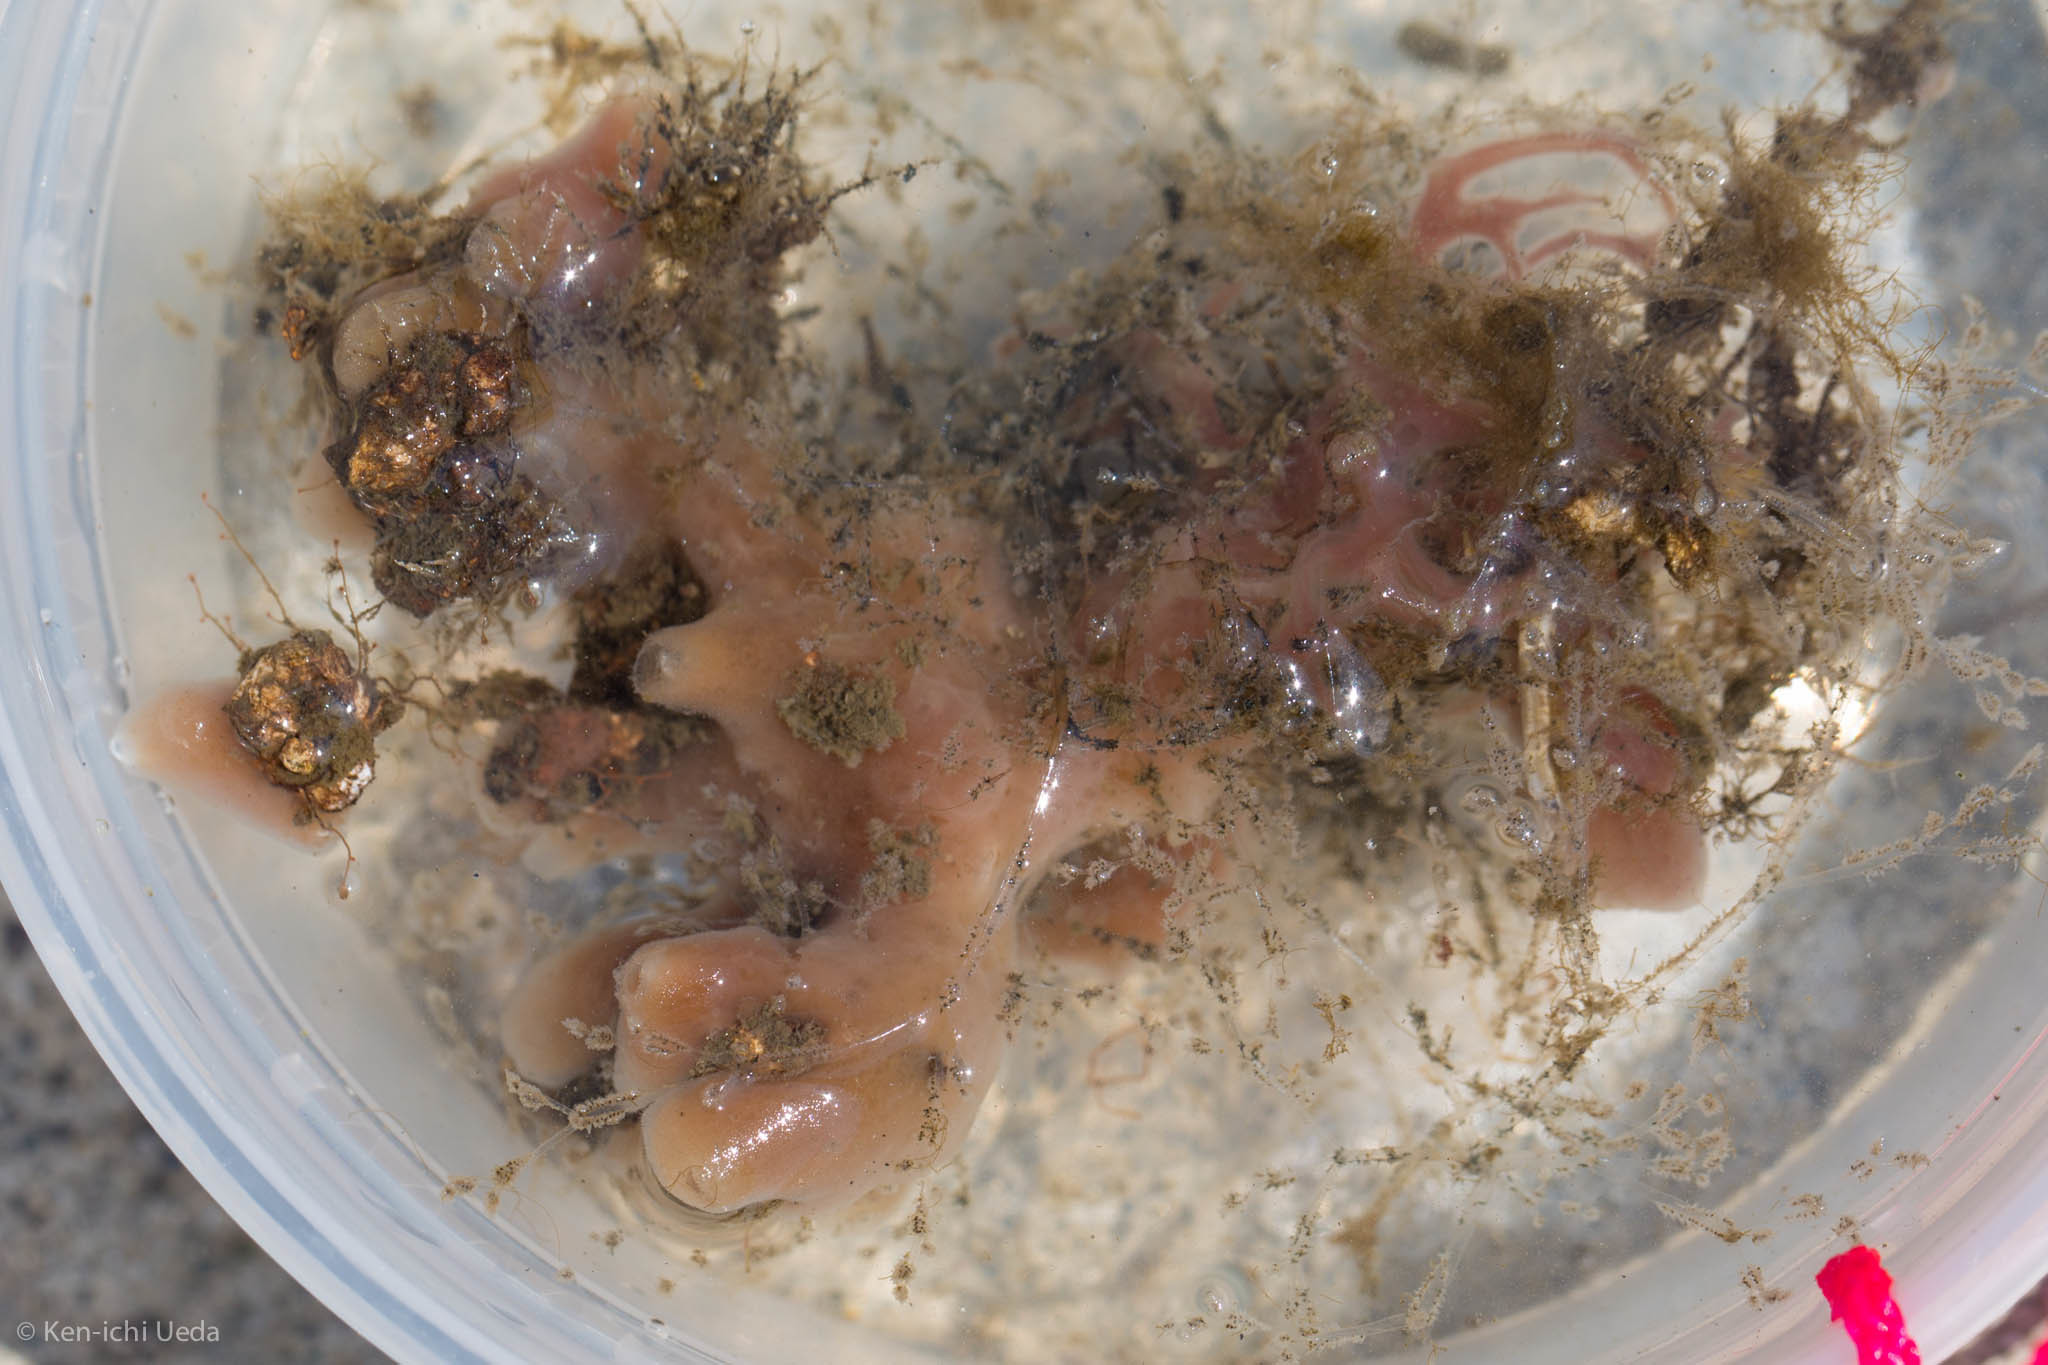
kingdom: Animalia
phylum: Bryozoa
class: Gymnolaemata
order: Ctenostomatida
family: Vesiculariidae
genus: Amathia
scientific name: Amathia verticillata
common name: Whorled zoobotryon
